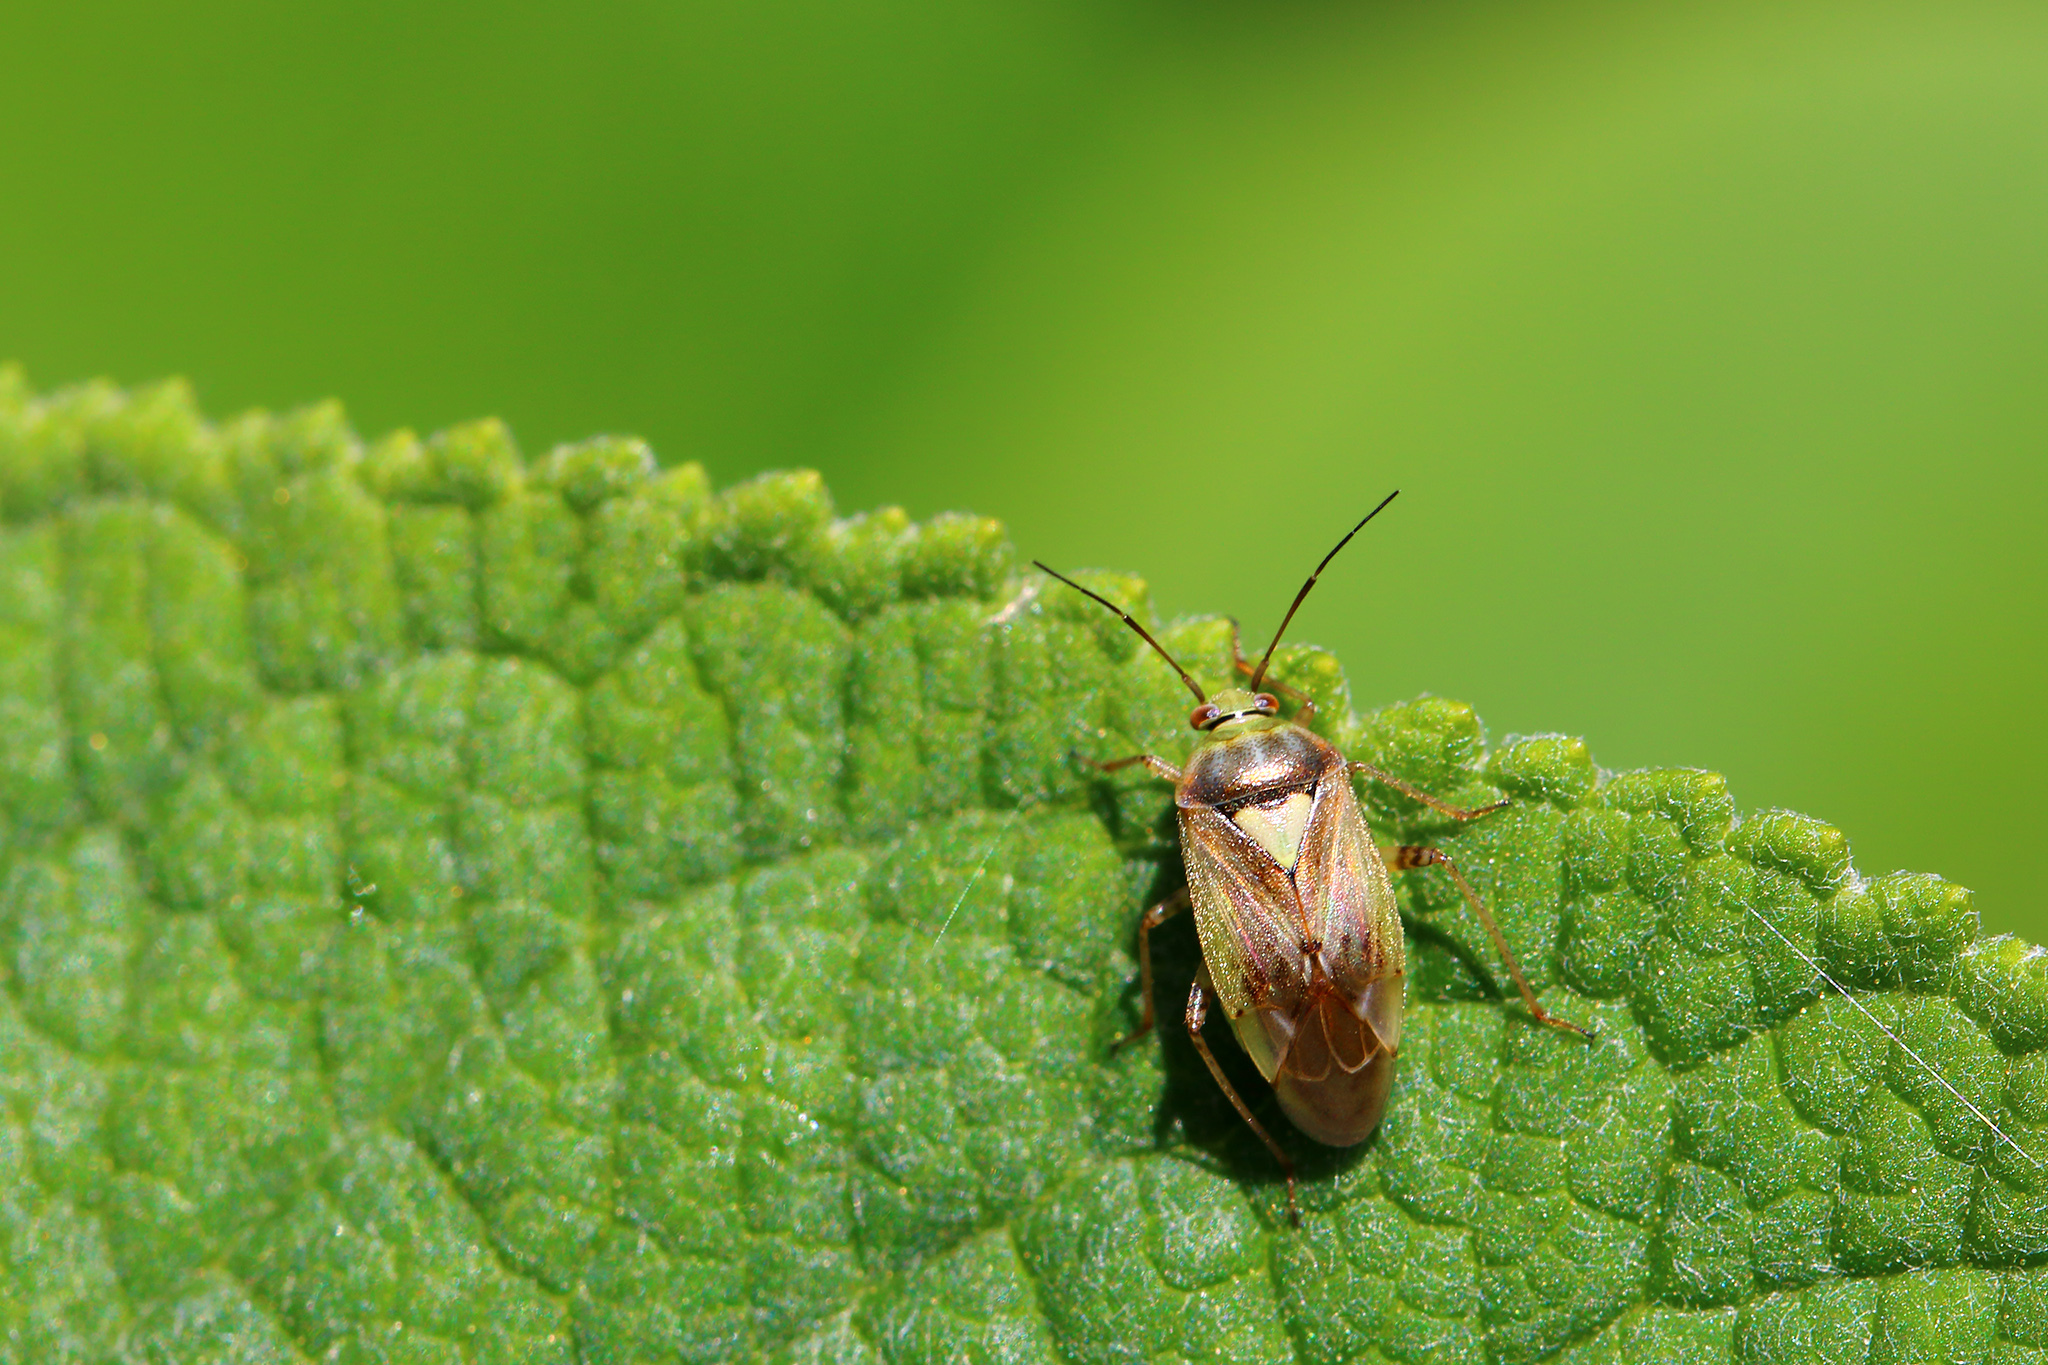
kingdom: Animalia
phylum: Arthropoda
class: Insecta
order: Hemiptera
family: Miridae
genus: Lygus
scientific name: Lygus rugulipennis
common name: European tarnished plant bug
